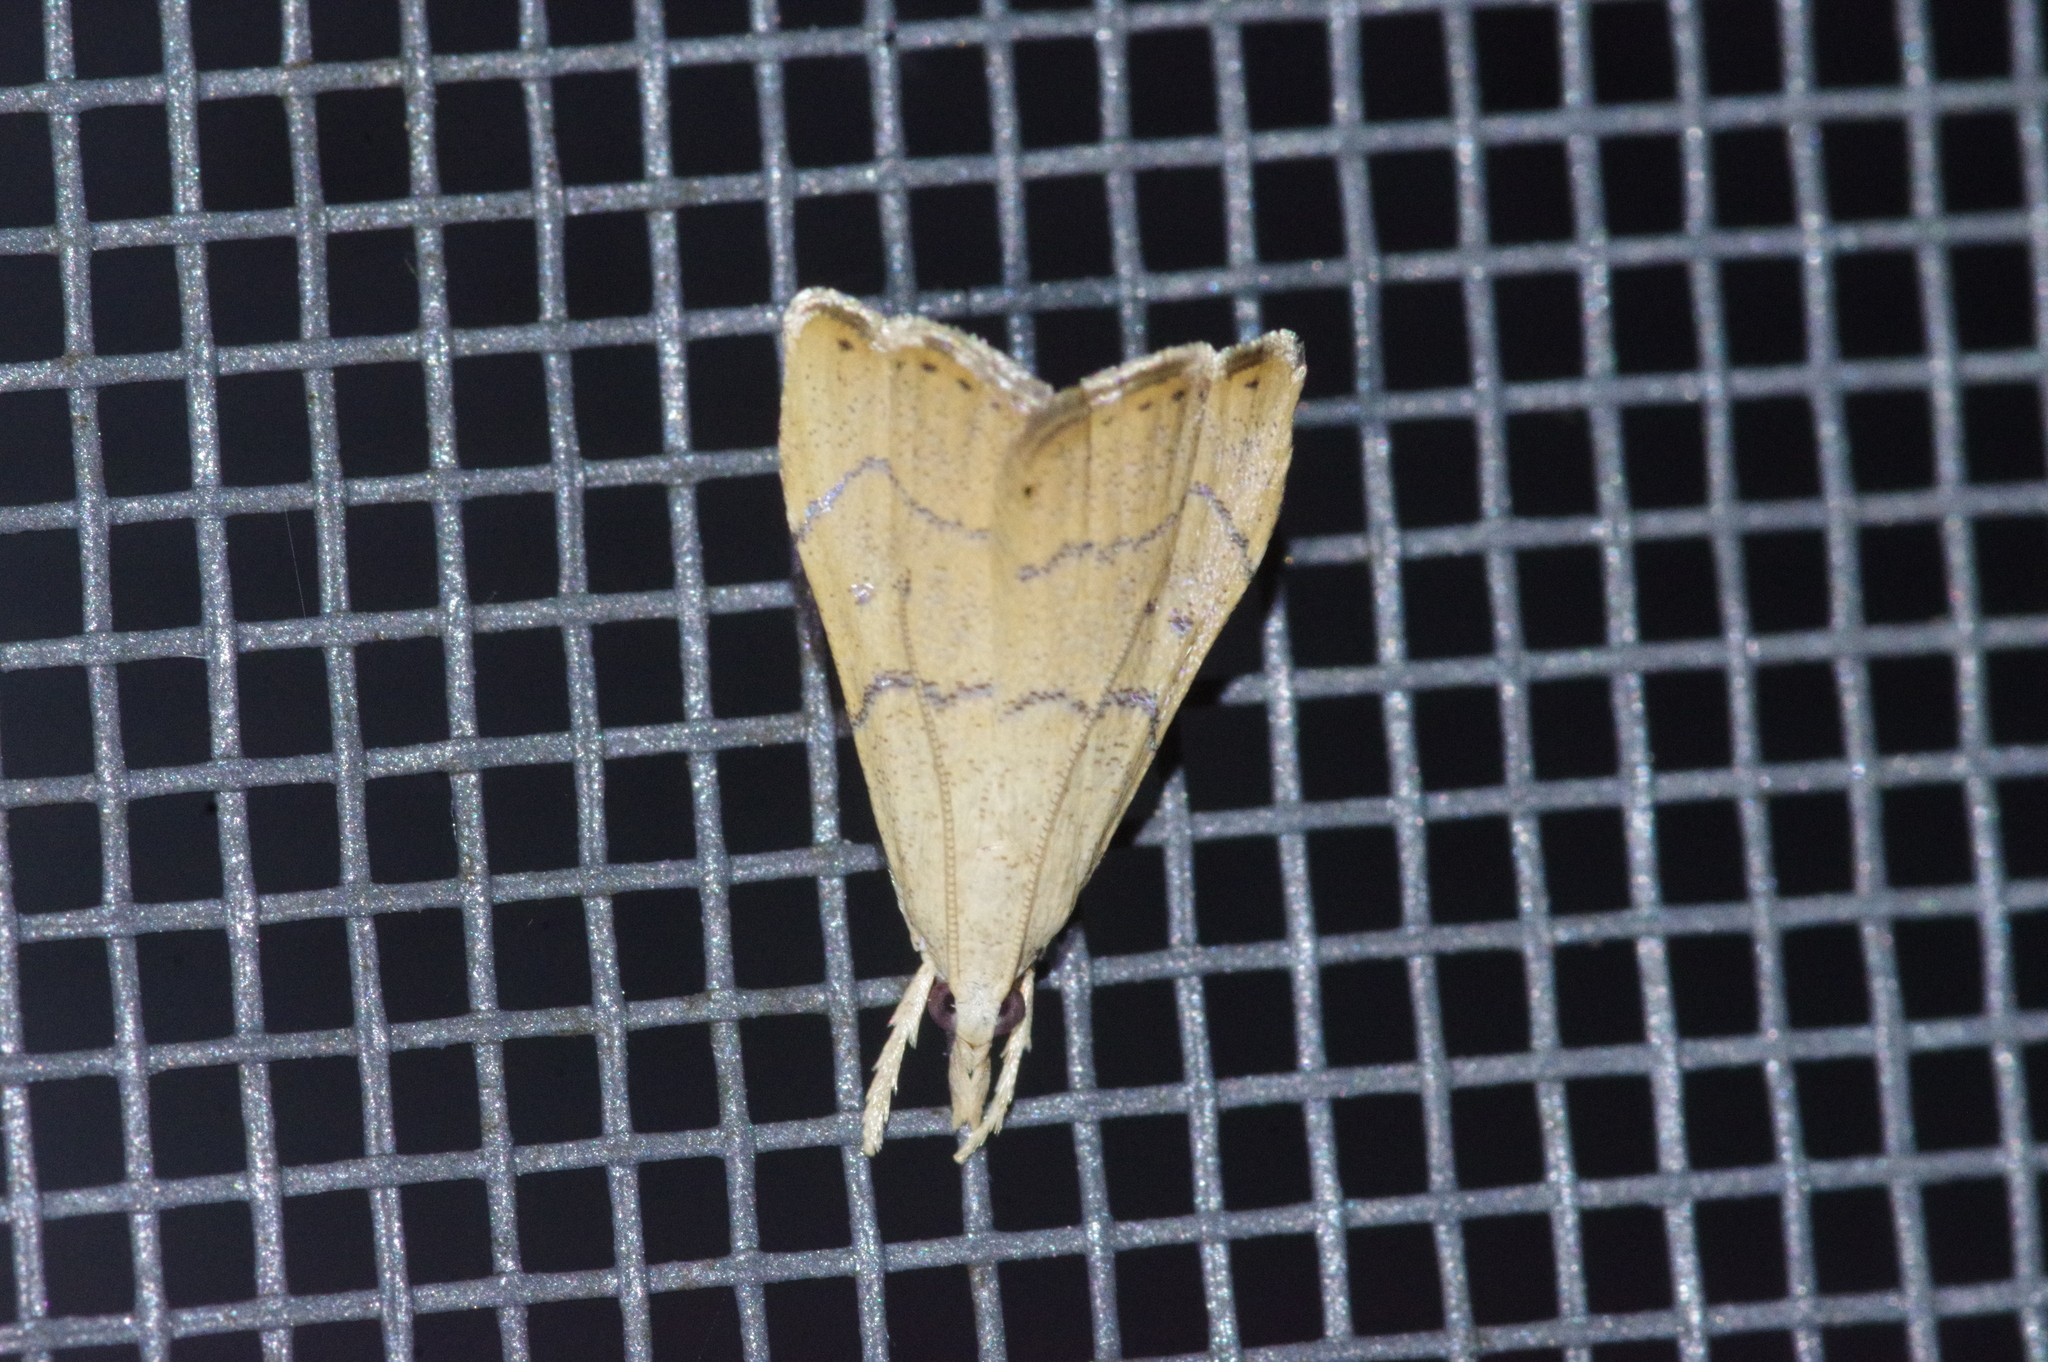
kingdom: Animalia
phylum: Arthropoda
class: Insecta
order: Lepidoptera
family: Crambidae
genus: Ptychopseustis
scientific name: Ptychopseustis
